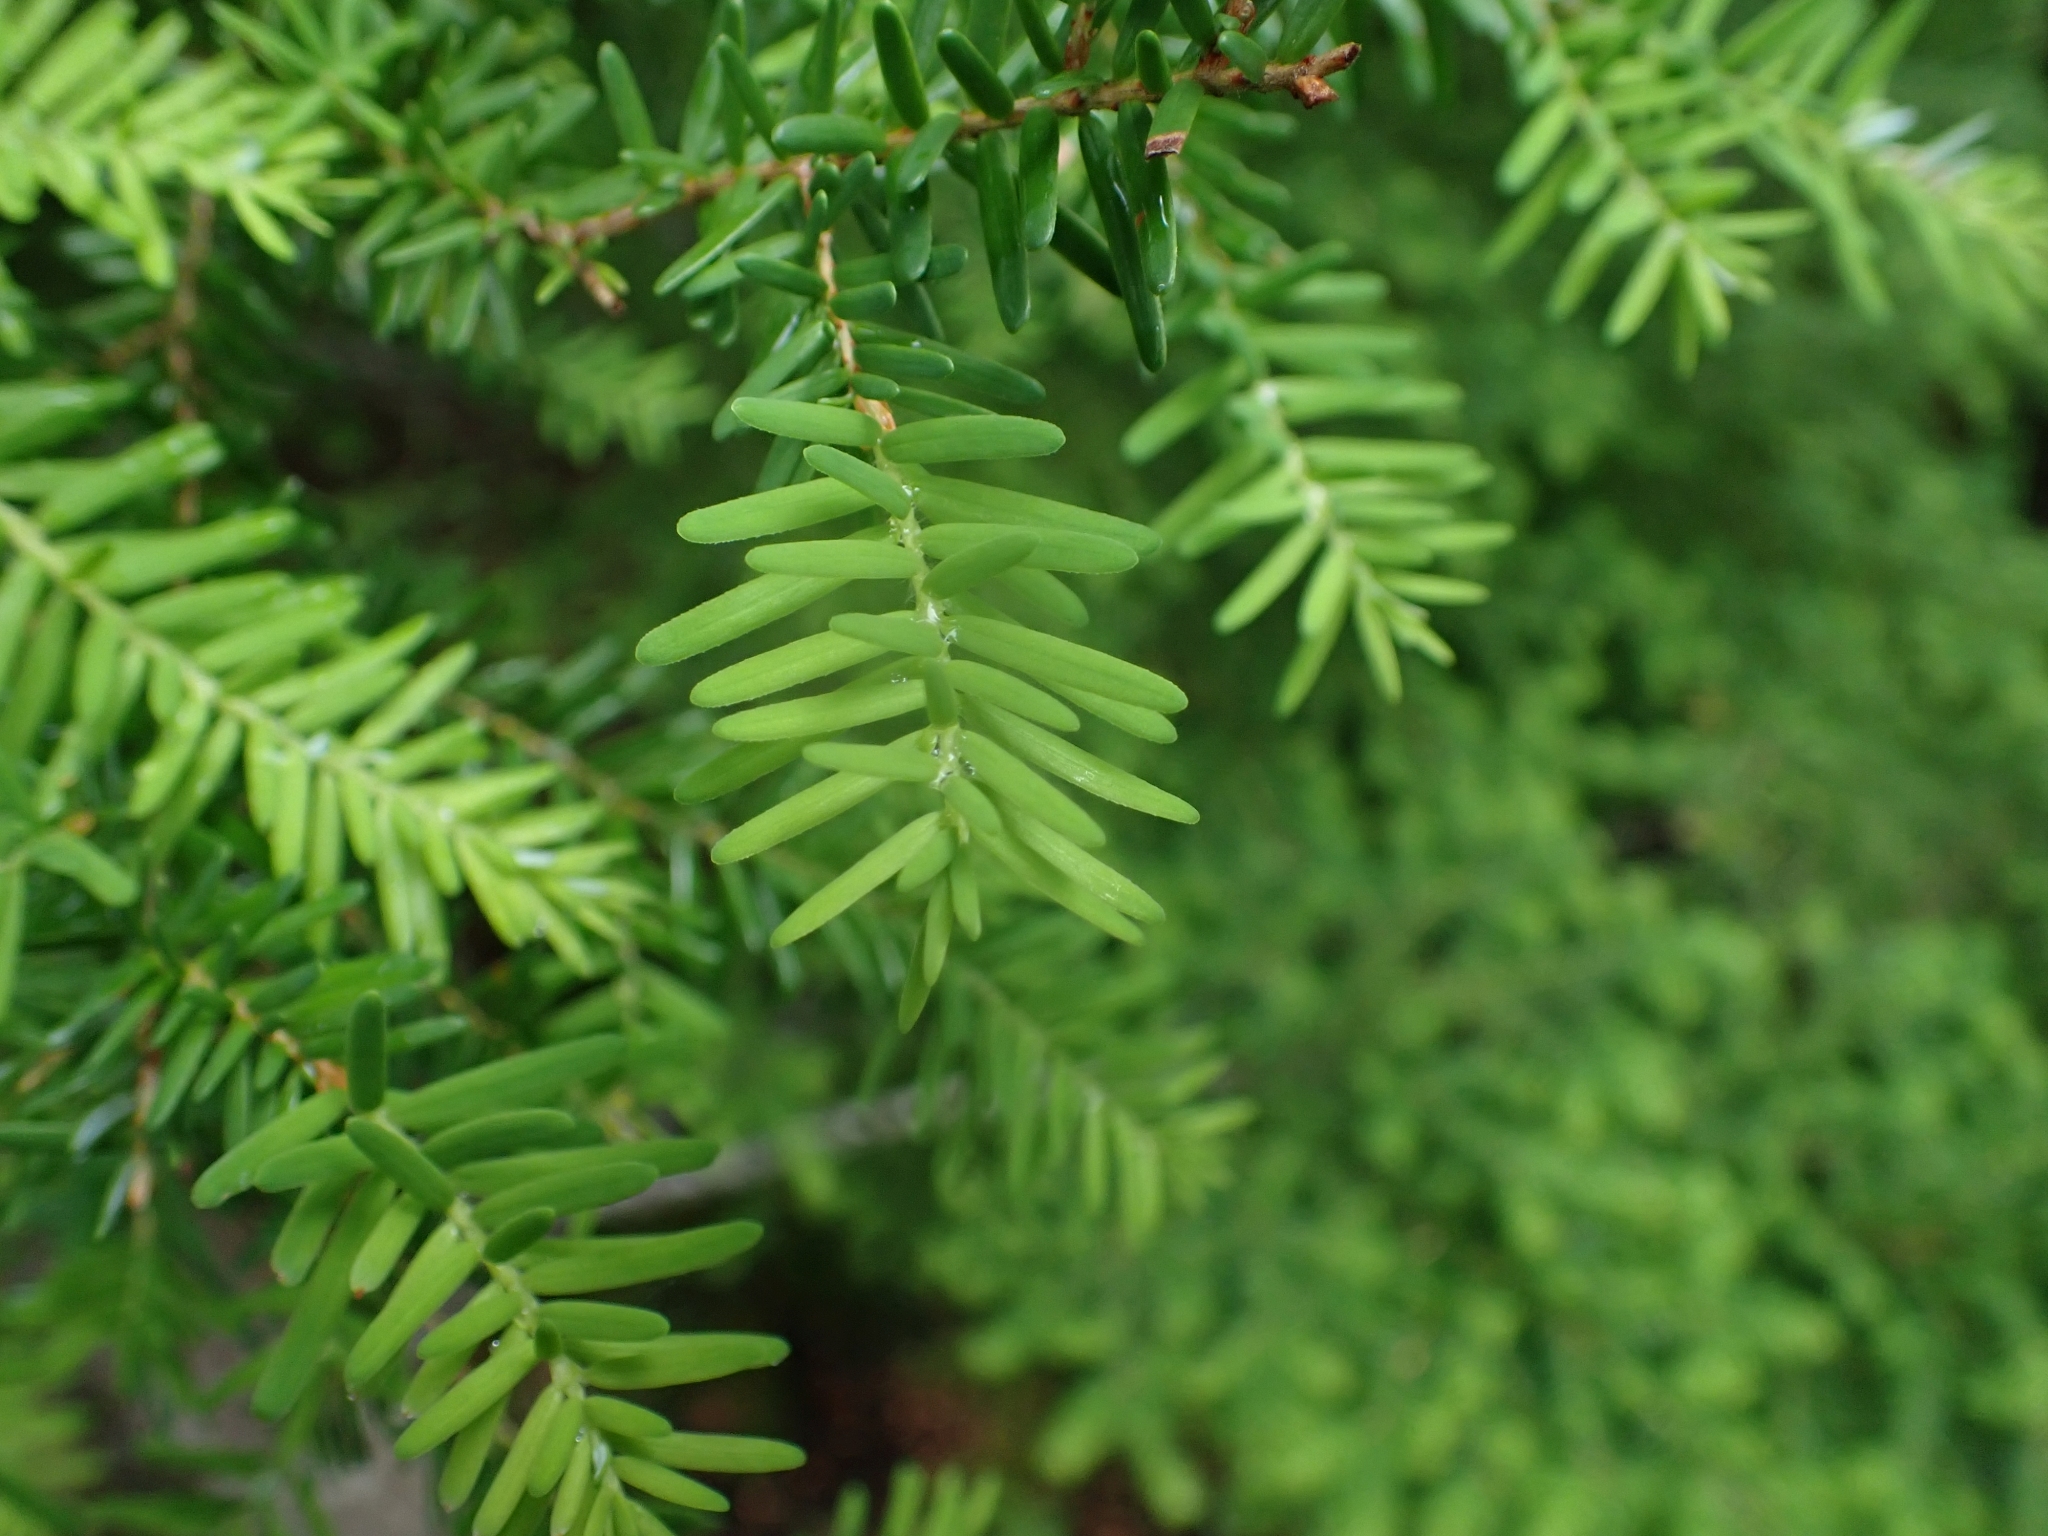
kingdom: Plantae
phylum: Tracheophyta
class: Pinopsida
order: Pinales
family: Pinaceae
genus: Tsuga
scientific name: Tsuga heterophylla
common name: Western hemlock
